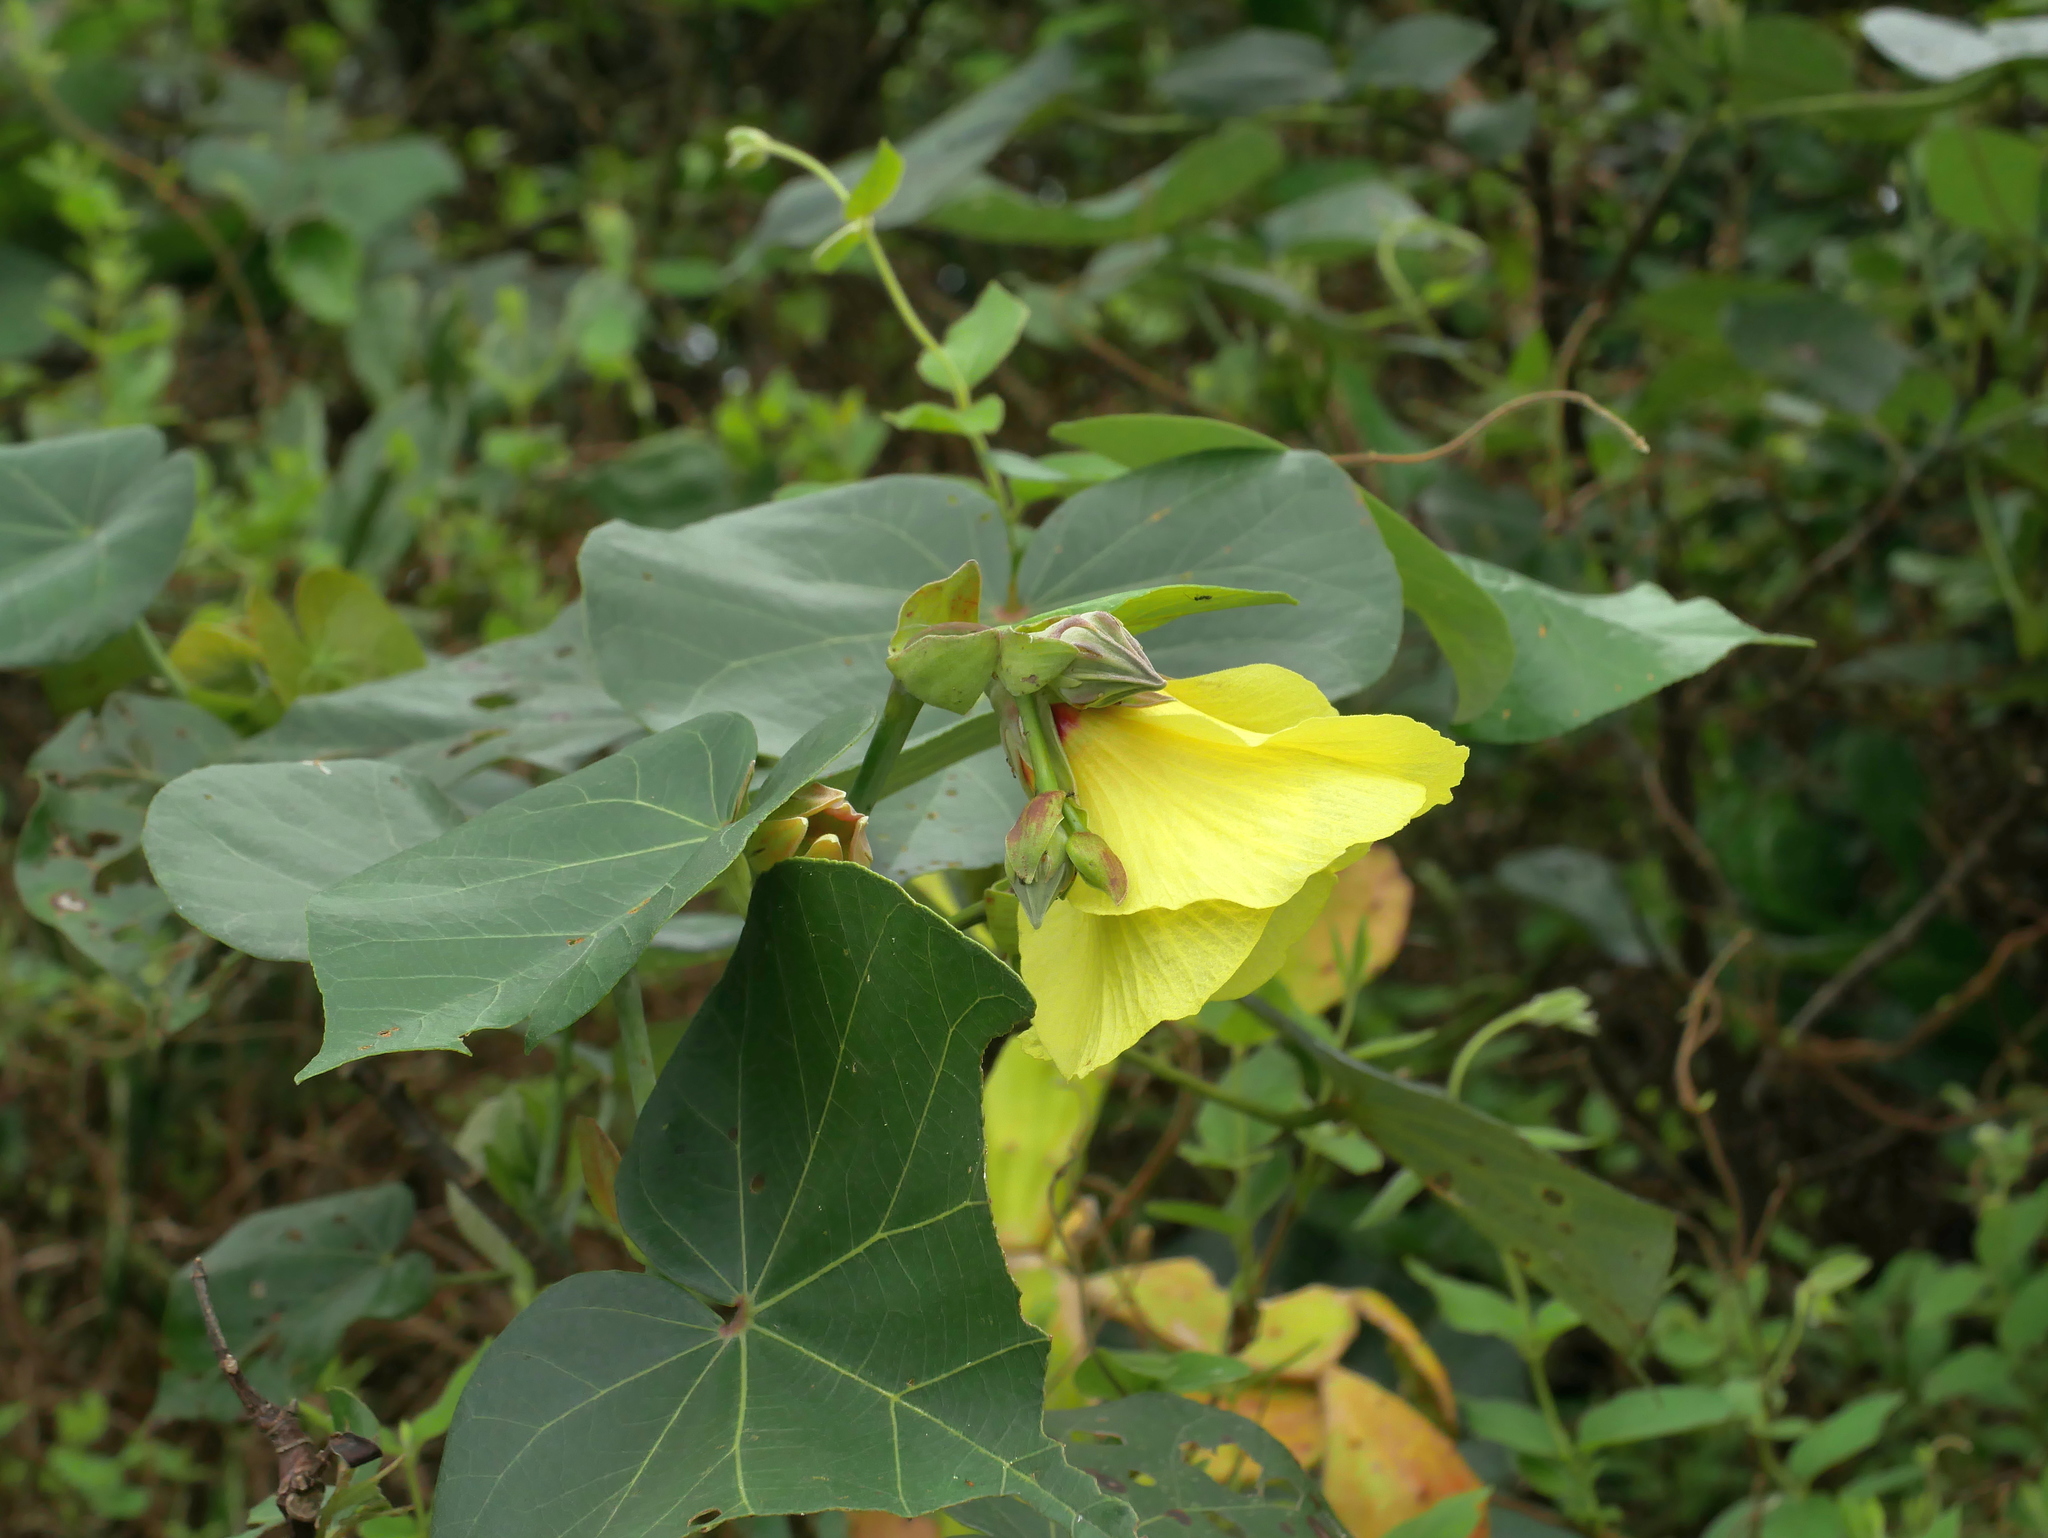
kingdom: Plantae
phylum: Tracheophyta
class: Magnoliopsida
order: Malvales
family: Malvaceae
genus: Talipariti
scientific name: Talipariti tiliaceum
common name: Sea hibiscus
